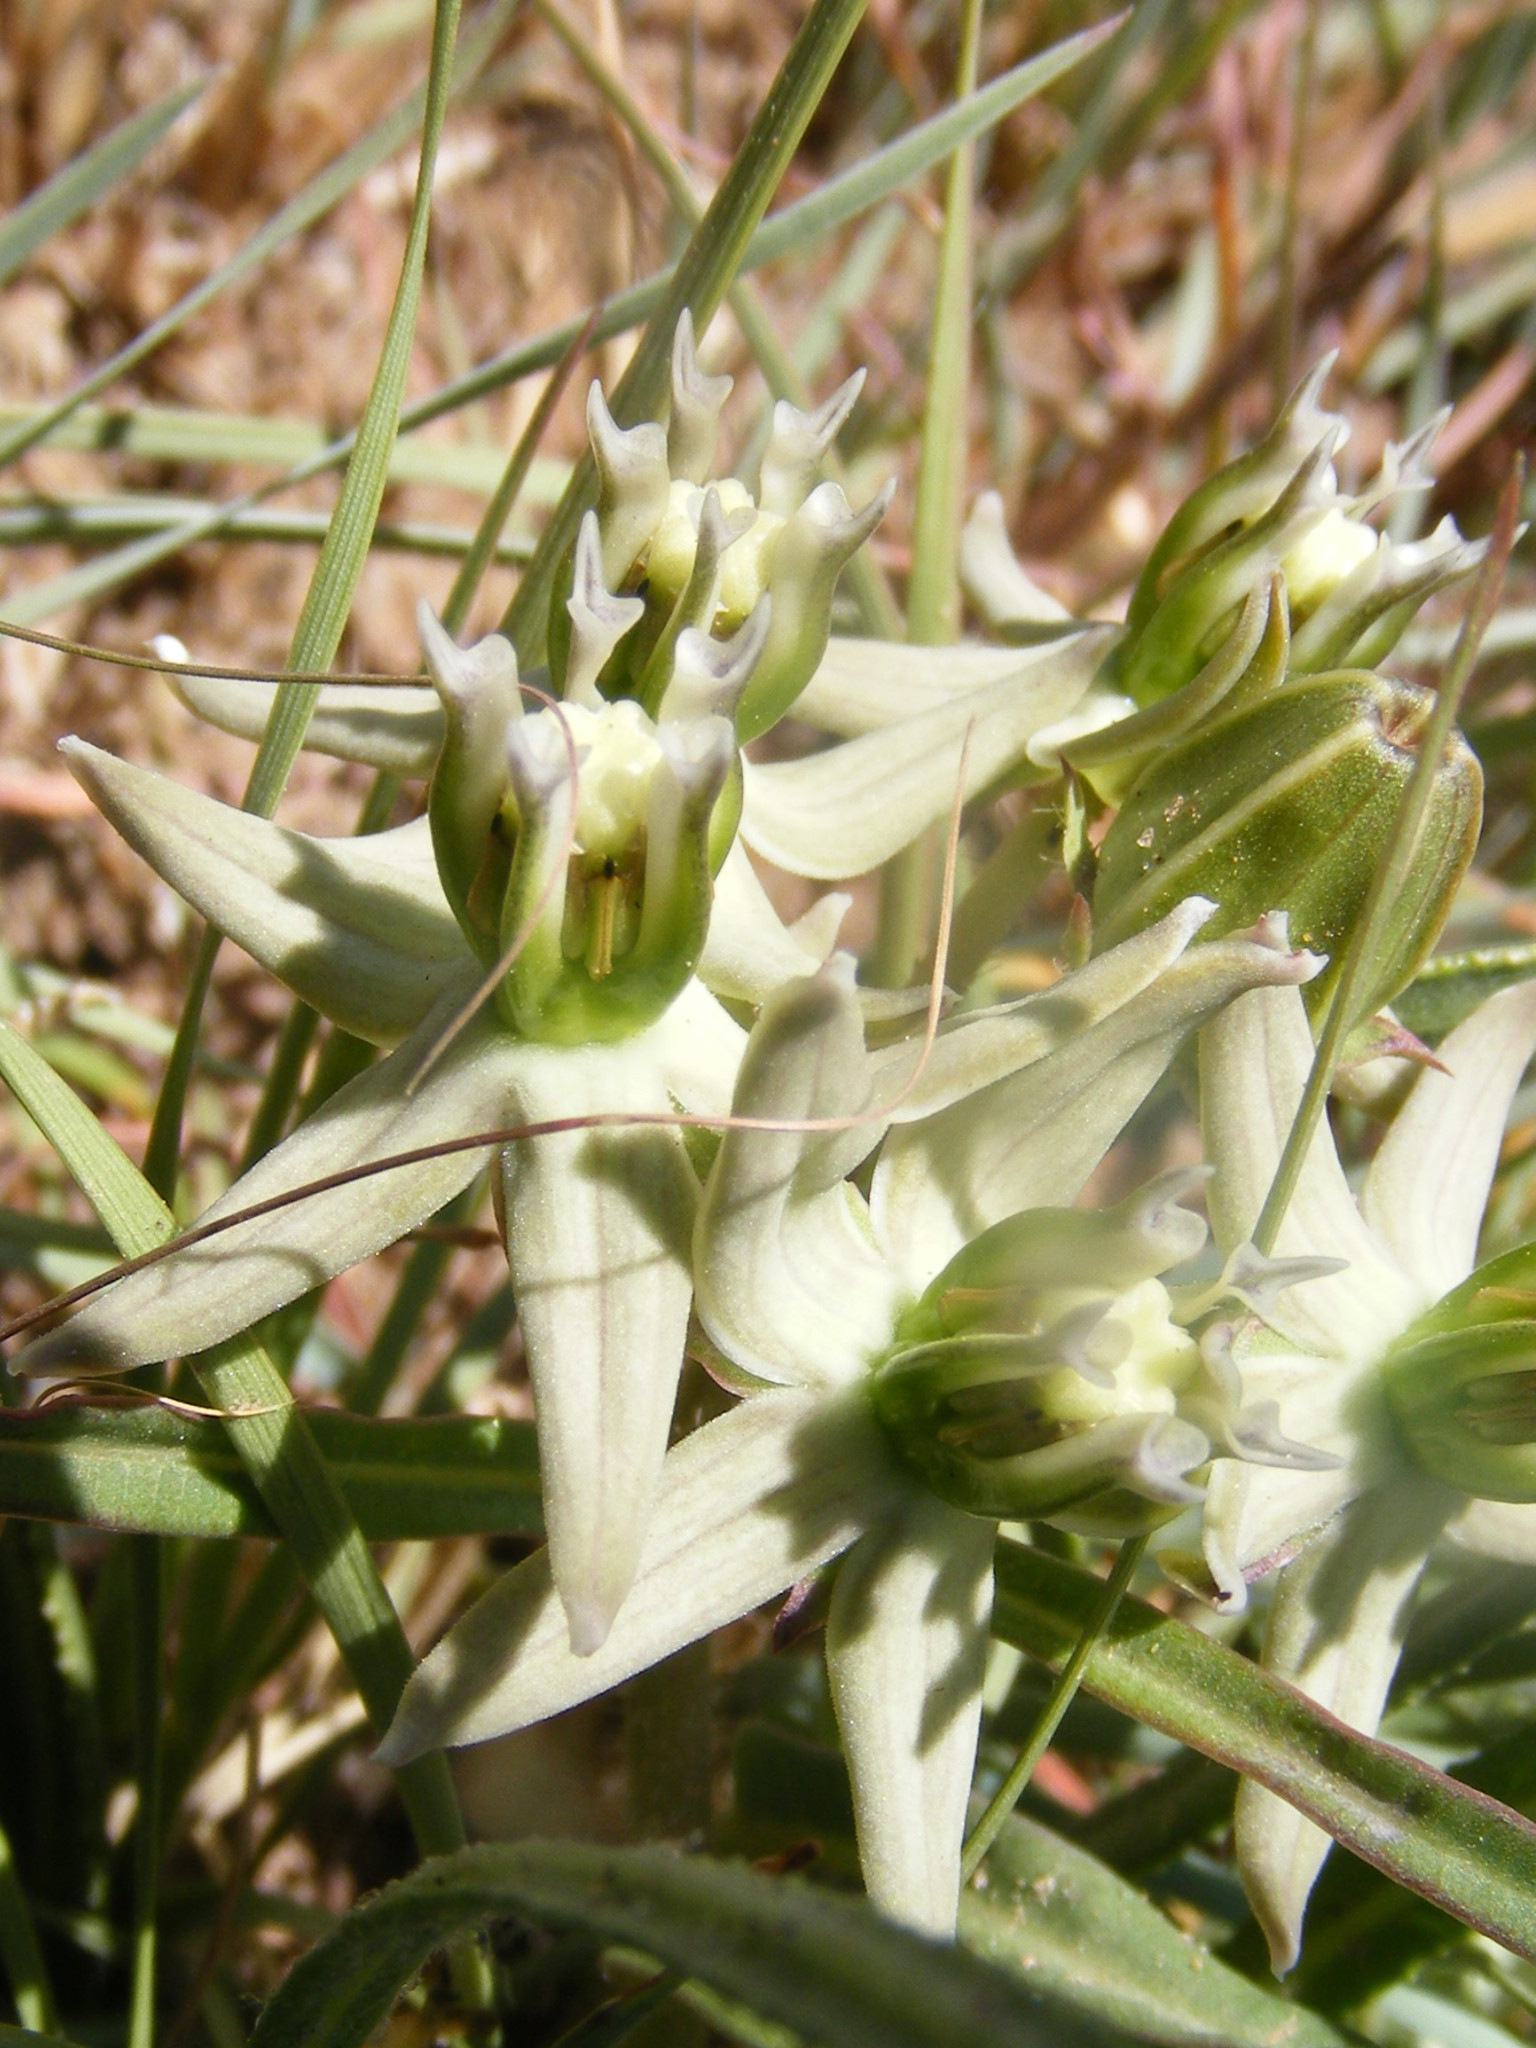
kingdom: Plantae
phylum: Tracheophyta
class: Magnoliopsida
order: Gentianales
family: Apocynaceae
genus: Asclepias
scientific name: Asclepias eminens
